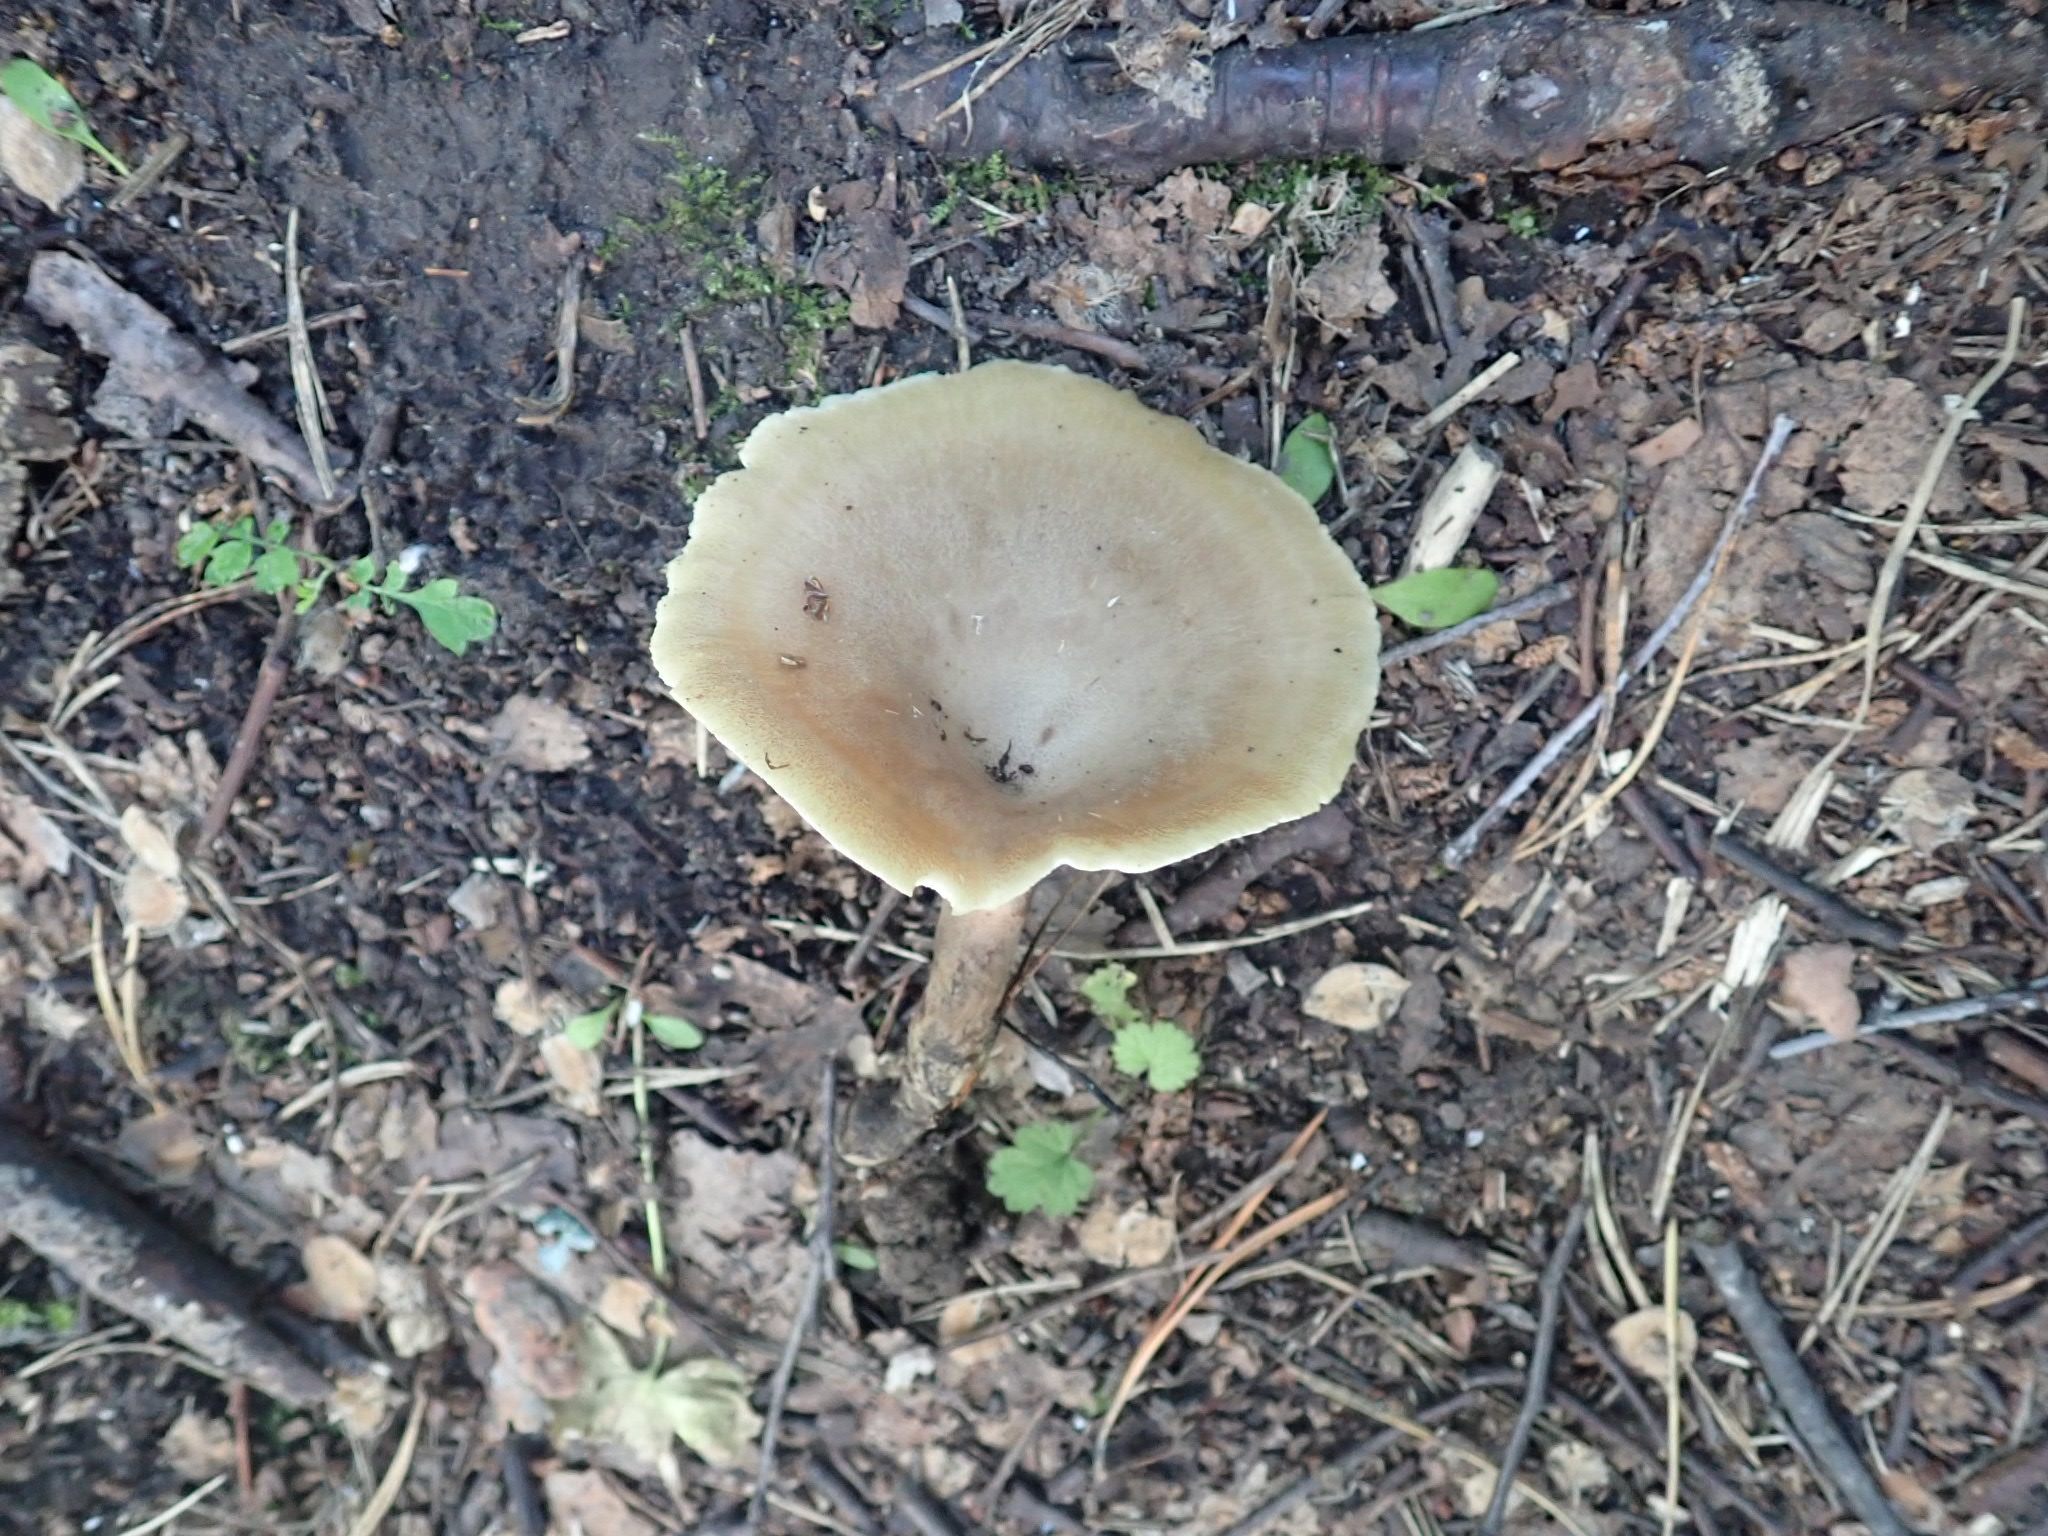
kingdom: Fungi
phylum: Basidiomycota
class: Agaricomycetes
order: Polyporales
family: Polyporaceae
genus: Picipes
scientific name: Picipes melanopus
